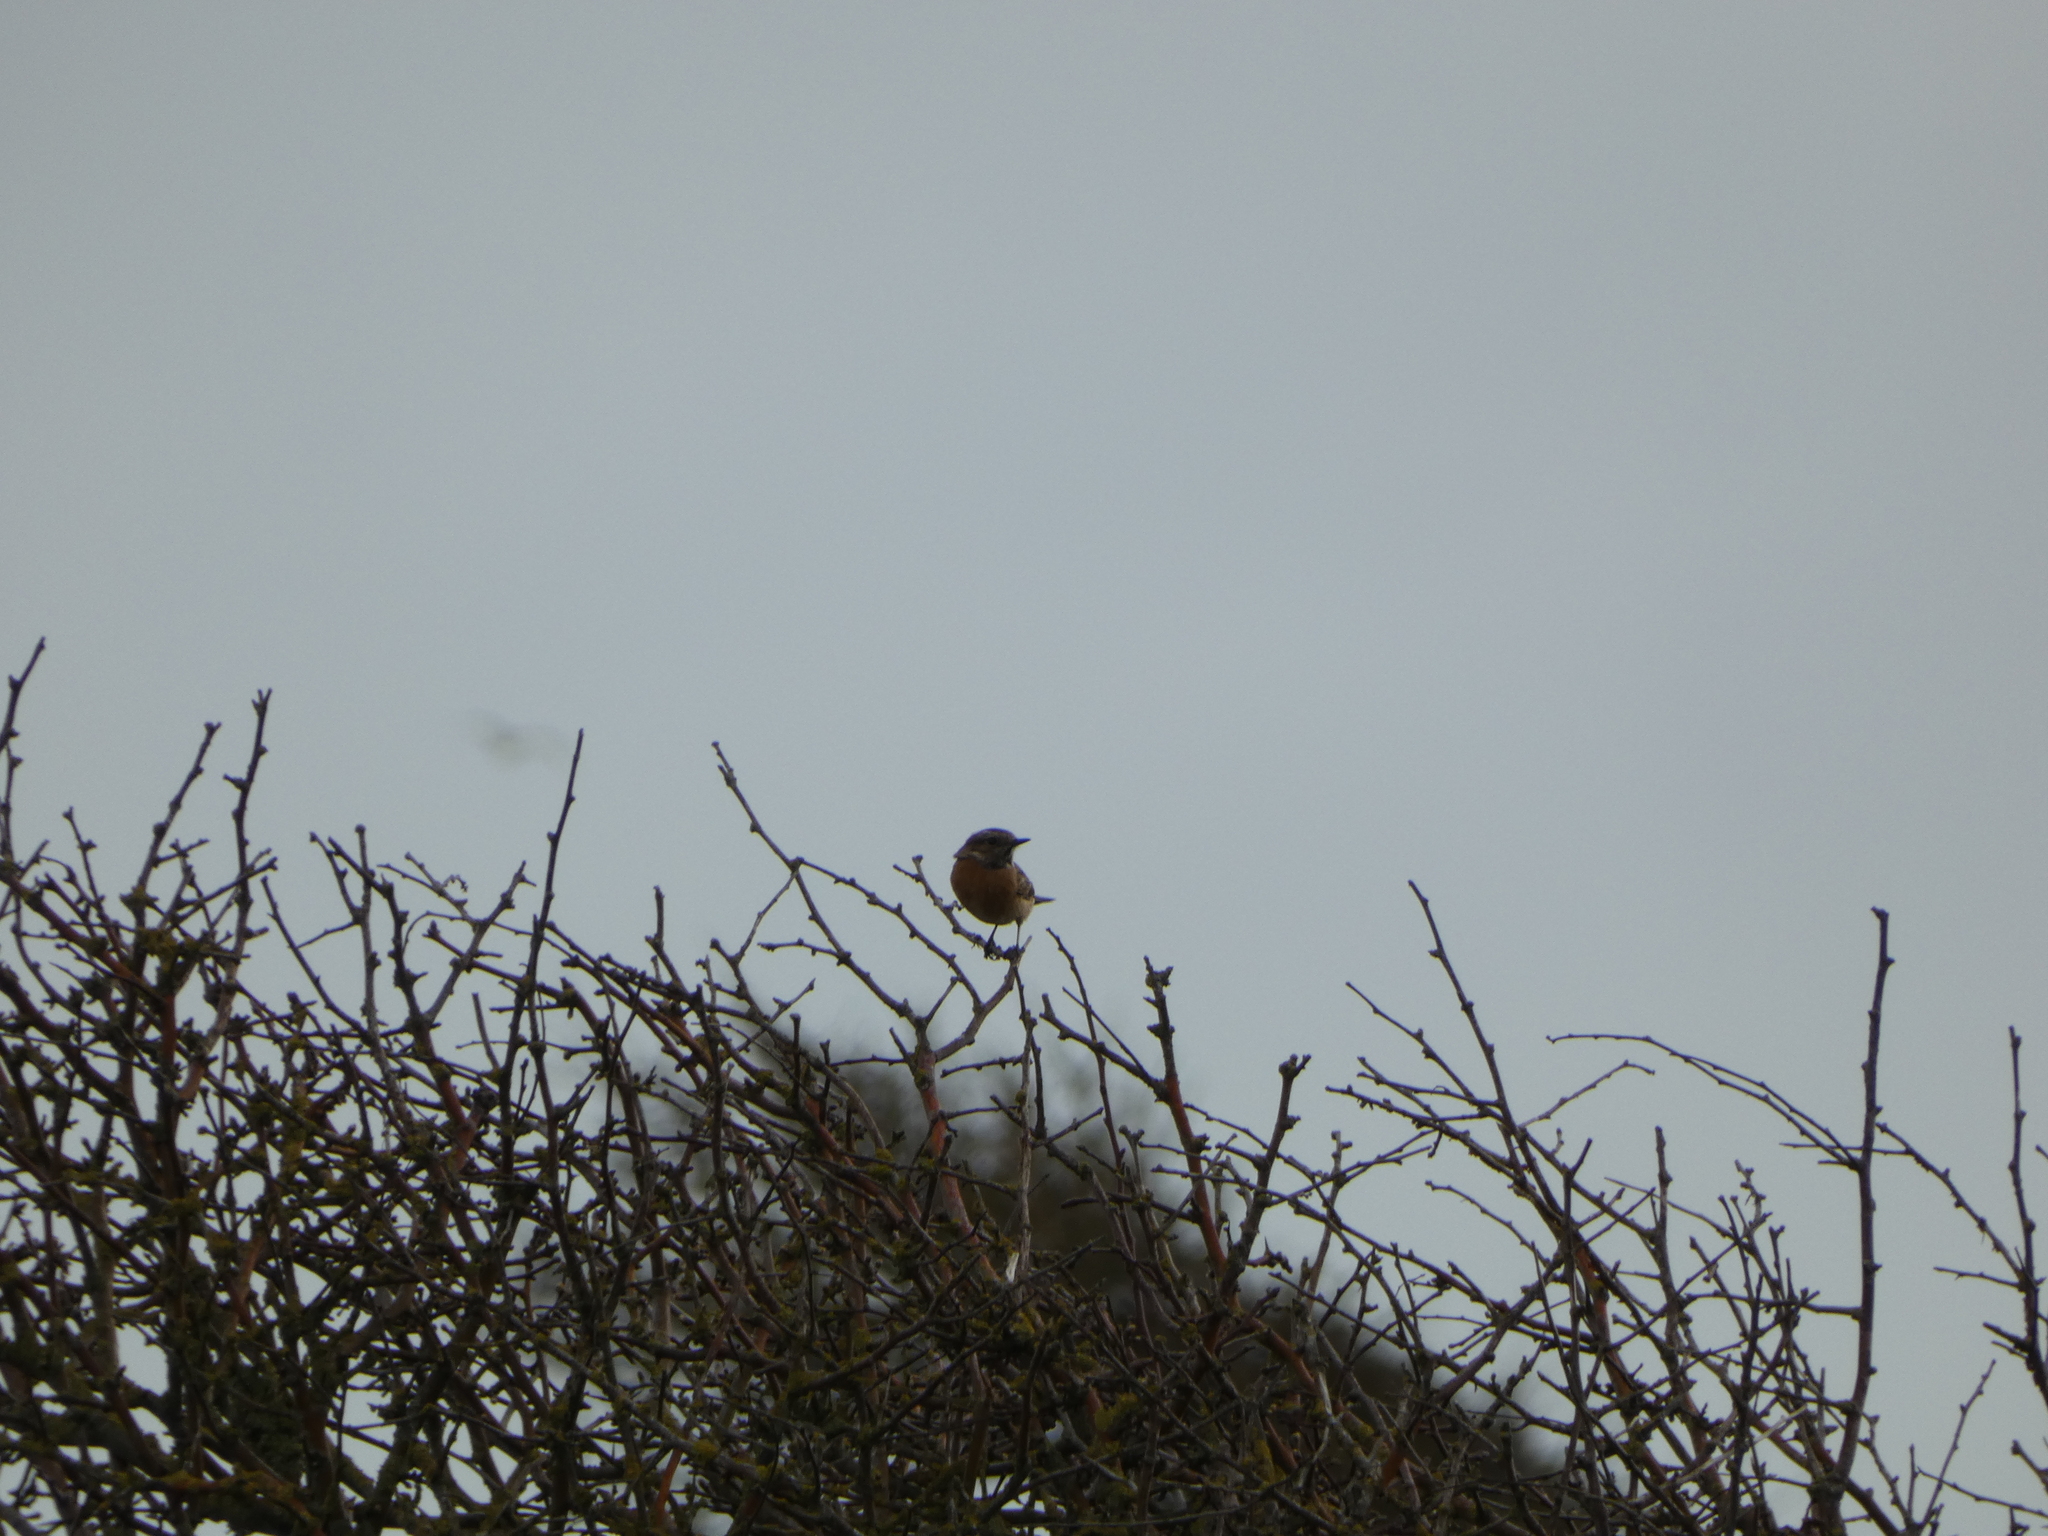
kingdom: Animalia
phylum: Chordata
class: Aves
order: Passeriformes
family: Muscicapidae
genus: Saxicola
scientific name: Saxicola rubicola
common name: European stonechat
